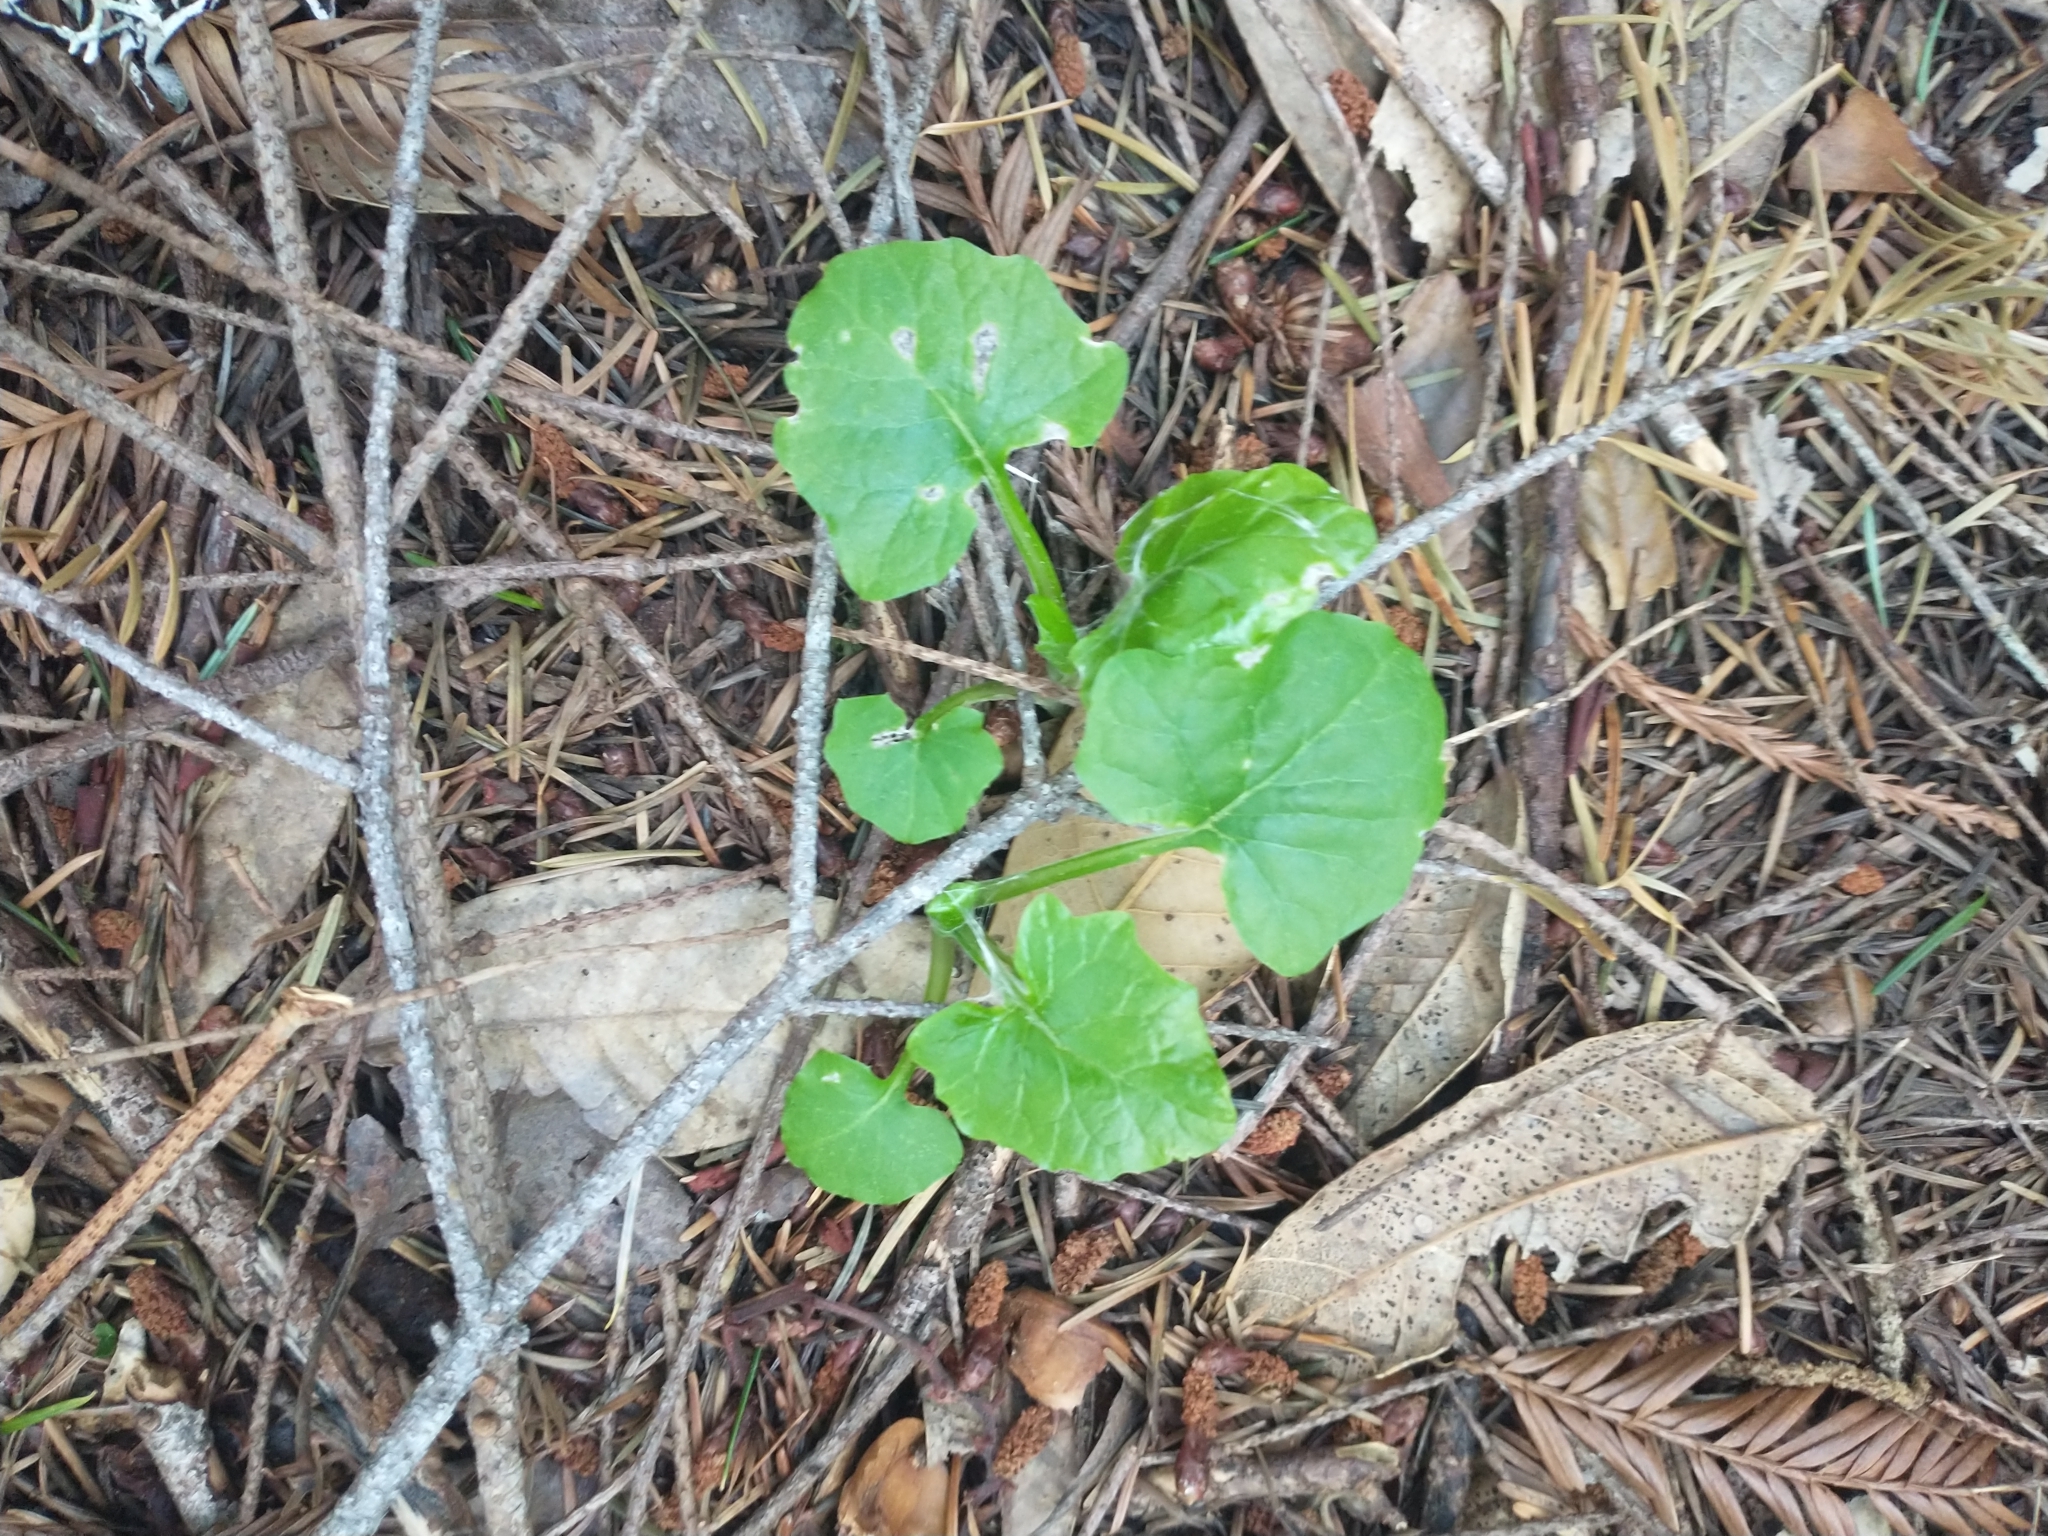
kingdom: Plantae
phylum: Tracheophyta
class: Magnoliopsida
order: Asterales
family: Asteraceae
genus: Adenocaulon
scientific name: Adenocaulon bicolor
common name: Trailplant
